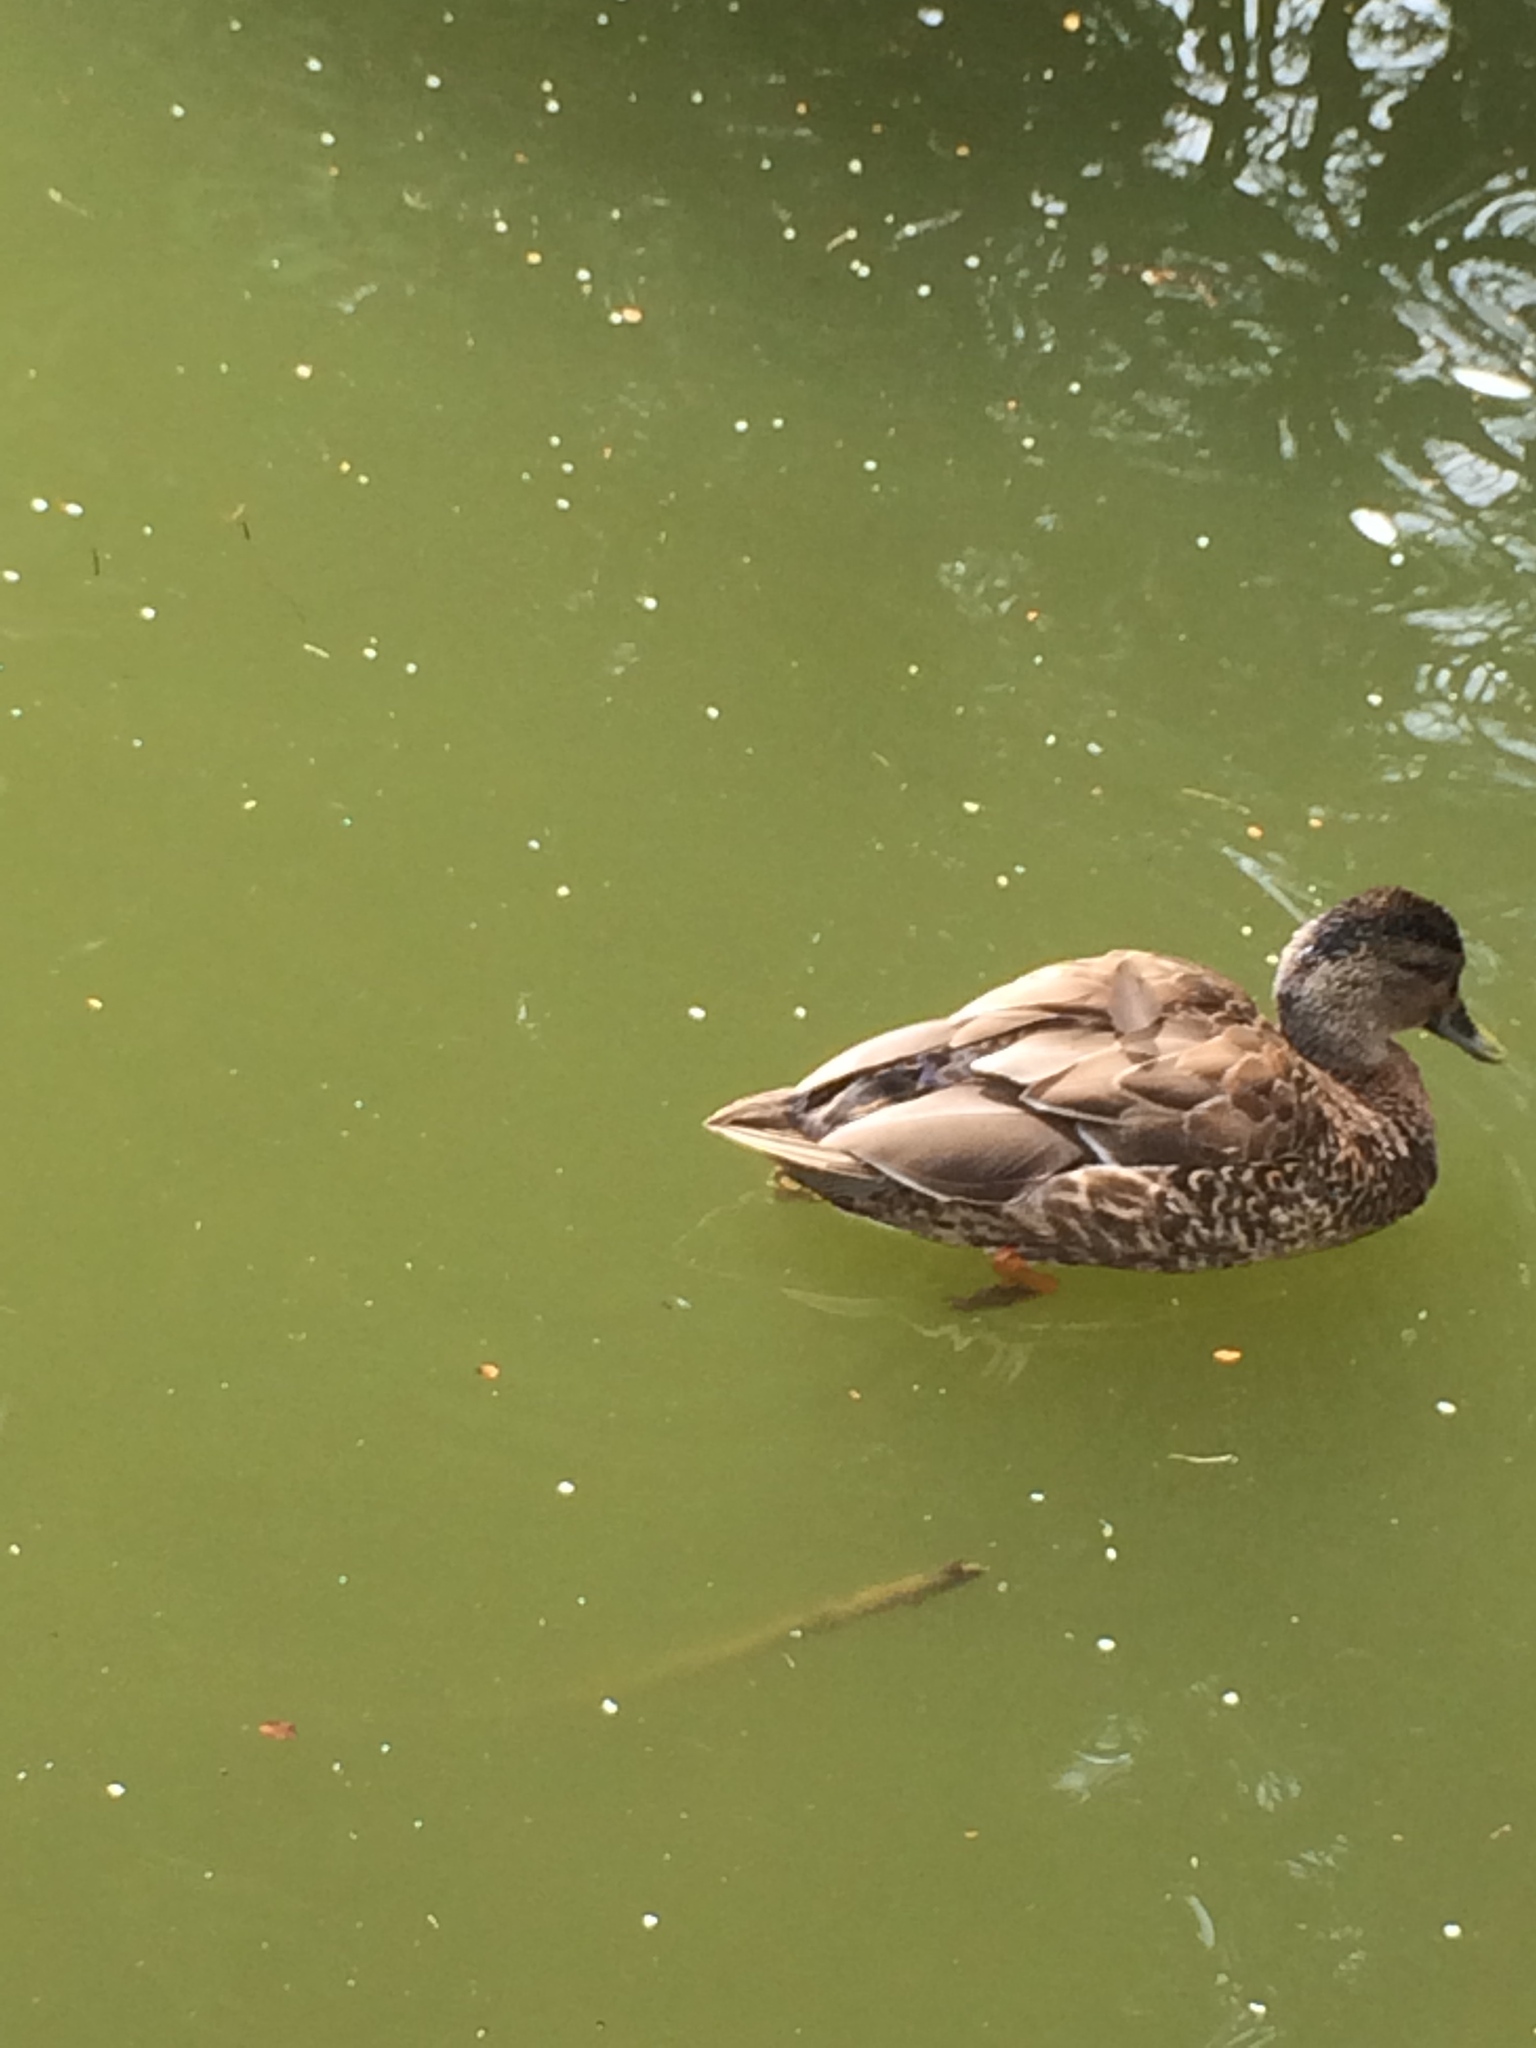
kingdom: Animalia
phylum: Chordata
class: Aves
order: Anseriformes
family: Anatidae
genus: Anas
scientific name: Anas
